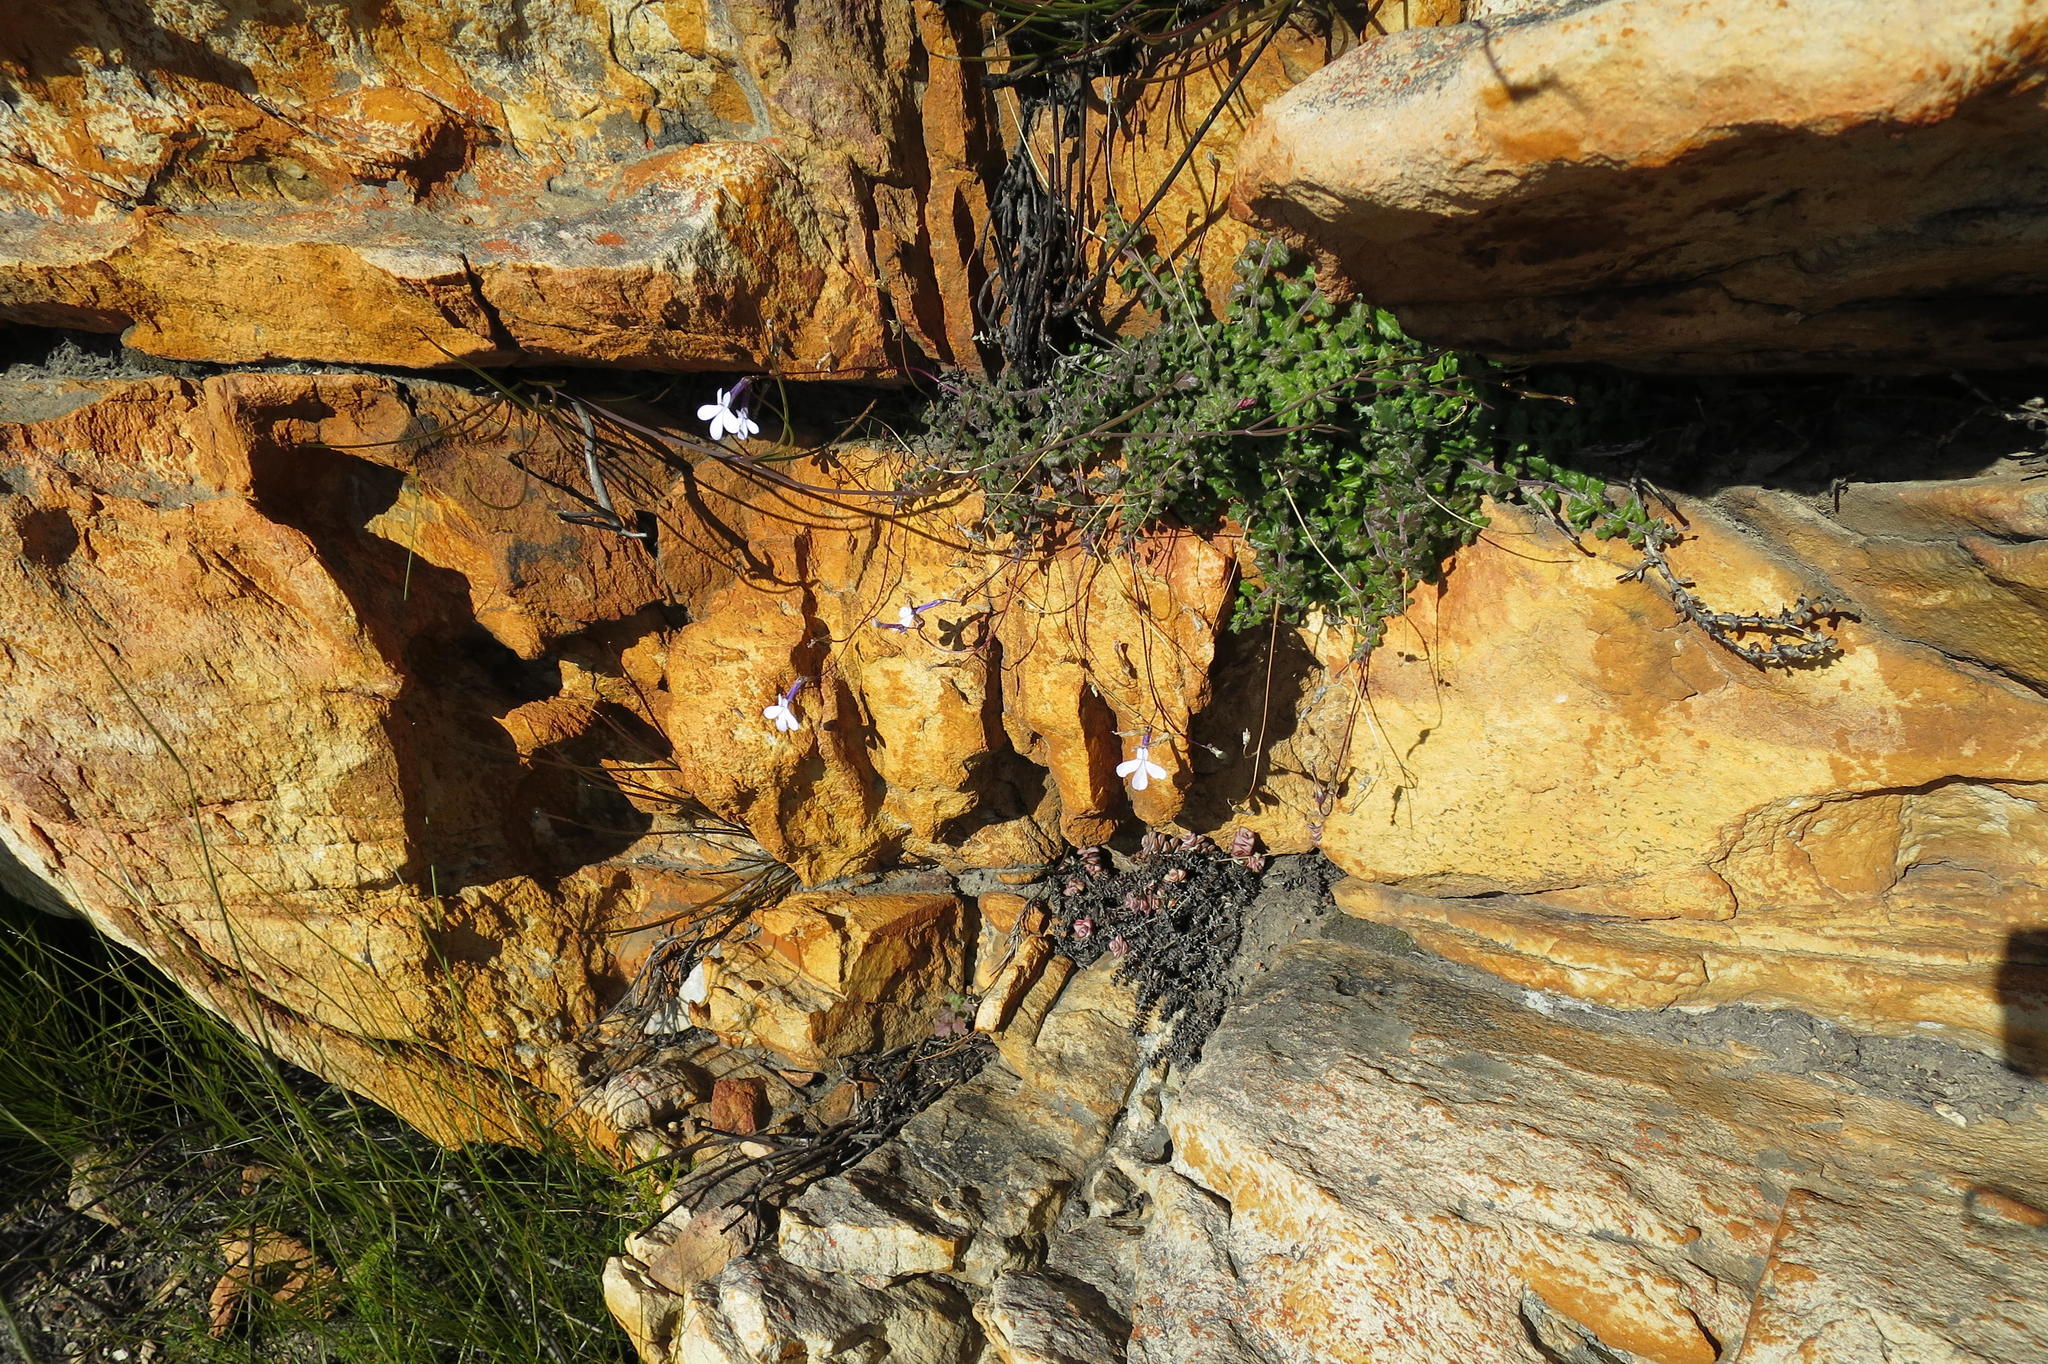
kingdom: Plantae
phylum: Tracheophyta
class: Magnoliopsida
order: Asterales
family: Campanulaceae
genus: Lobelia
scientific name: Lobelia dichroma
